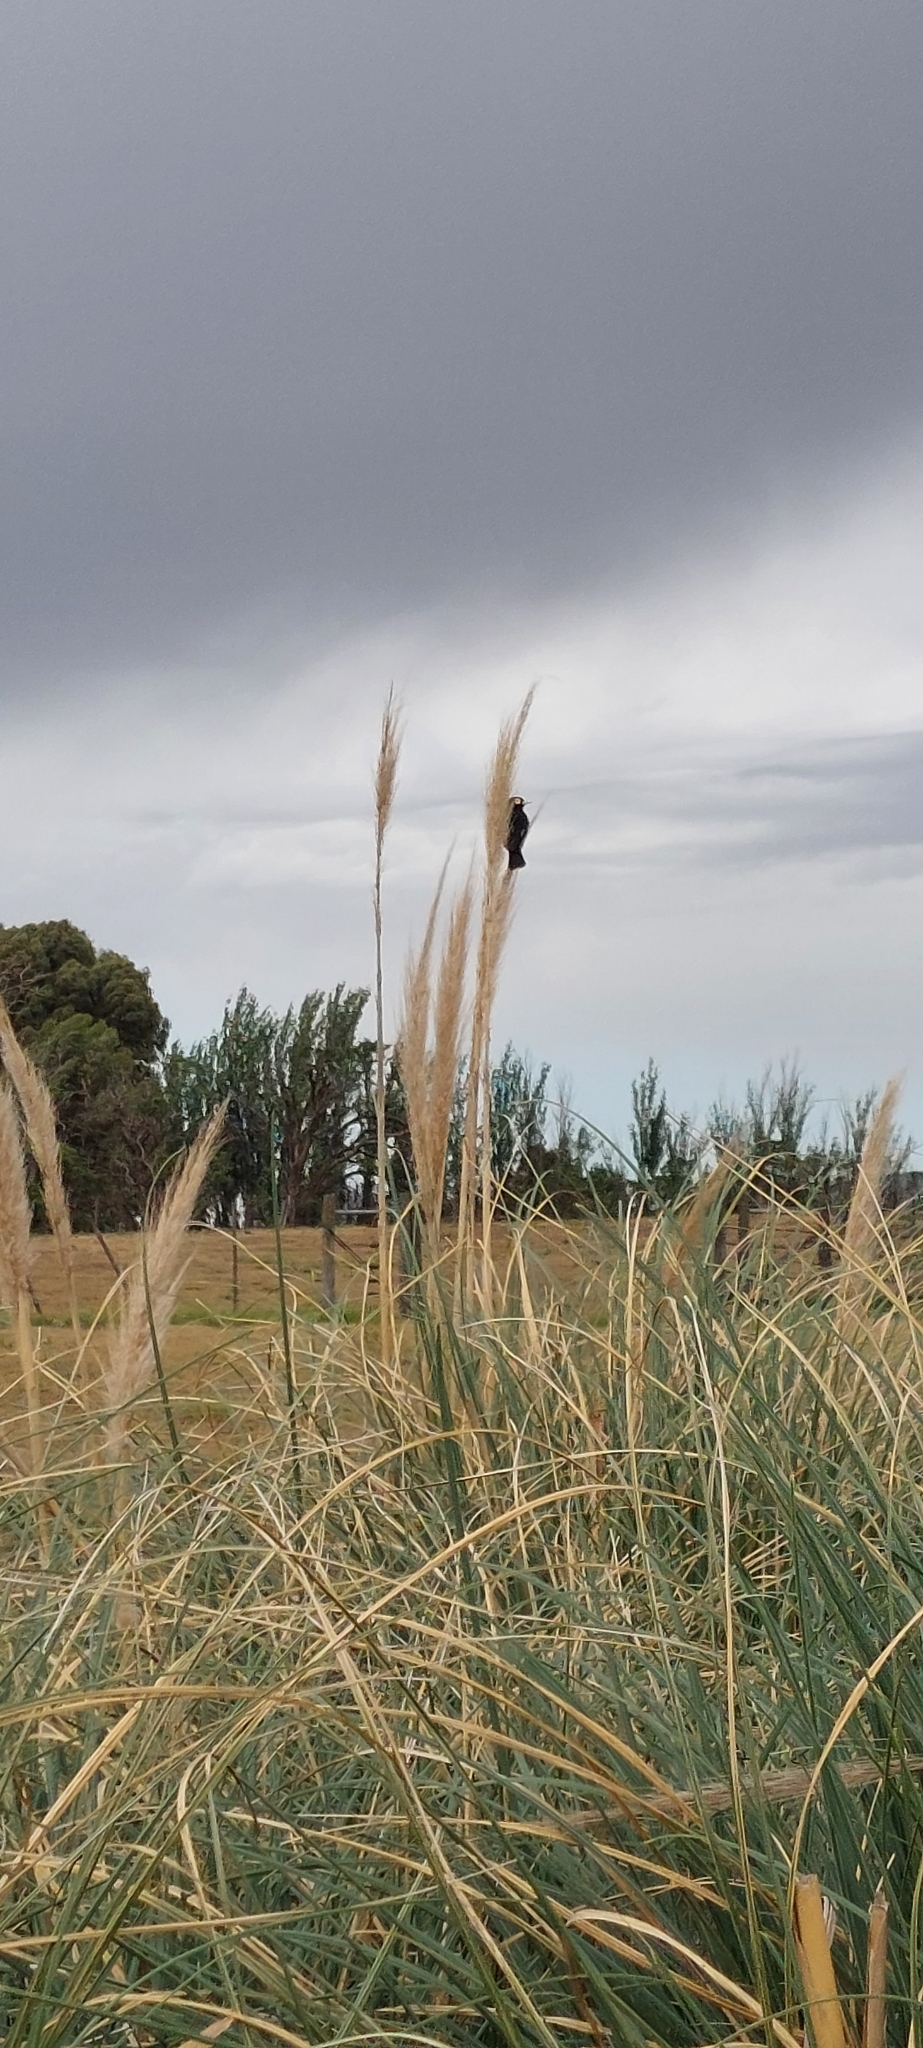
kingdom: Animalia
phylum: Chordata
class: Aves
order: Passeriformes
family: Tyrannidae
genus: Hymenops
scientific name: Hymenops perspicillatus
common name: Spectacled tyrant
